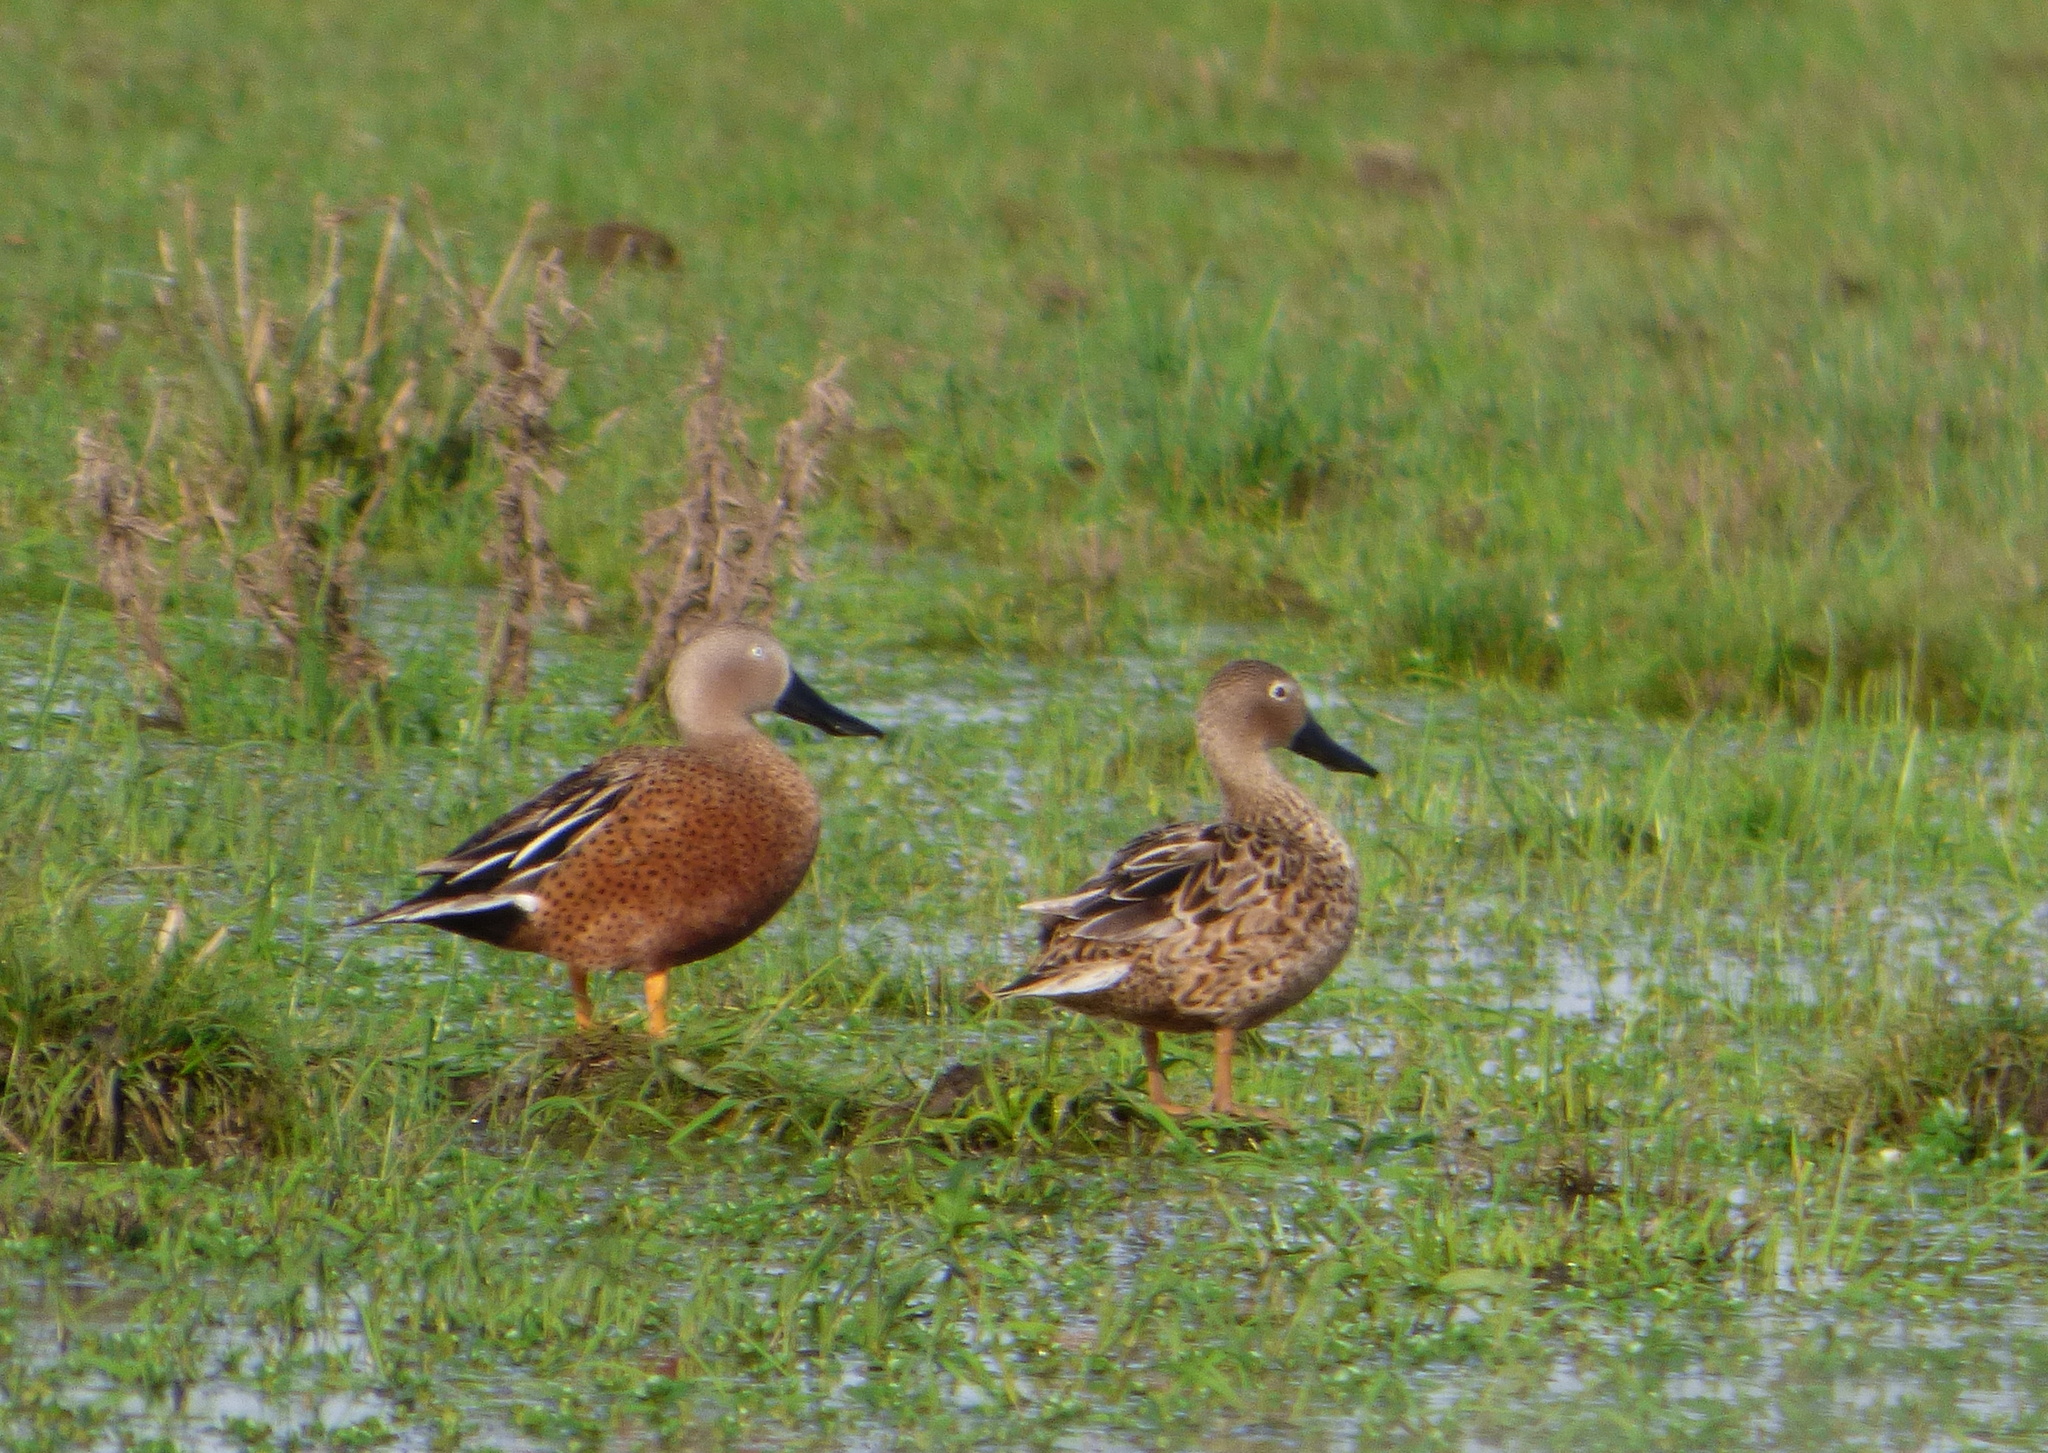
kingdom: Animalia
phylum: Chordata
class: Aves
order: Anseriformes
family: Anatidae
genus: Spatula
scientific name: Spatula platalea
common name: Red shoveler
